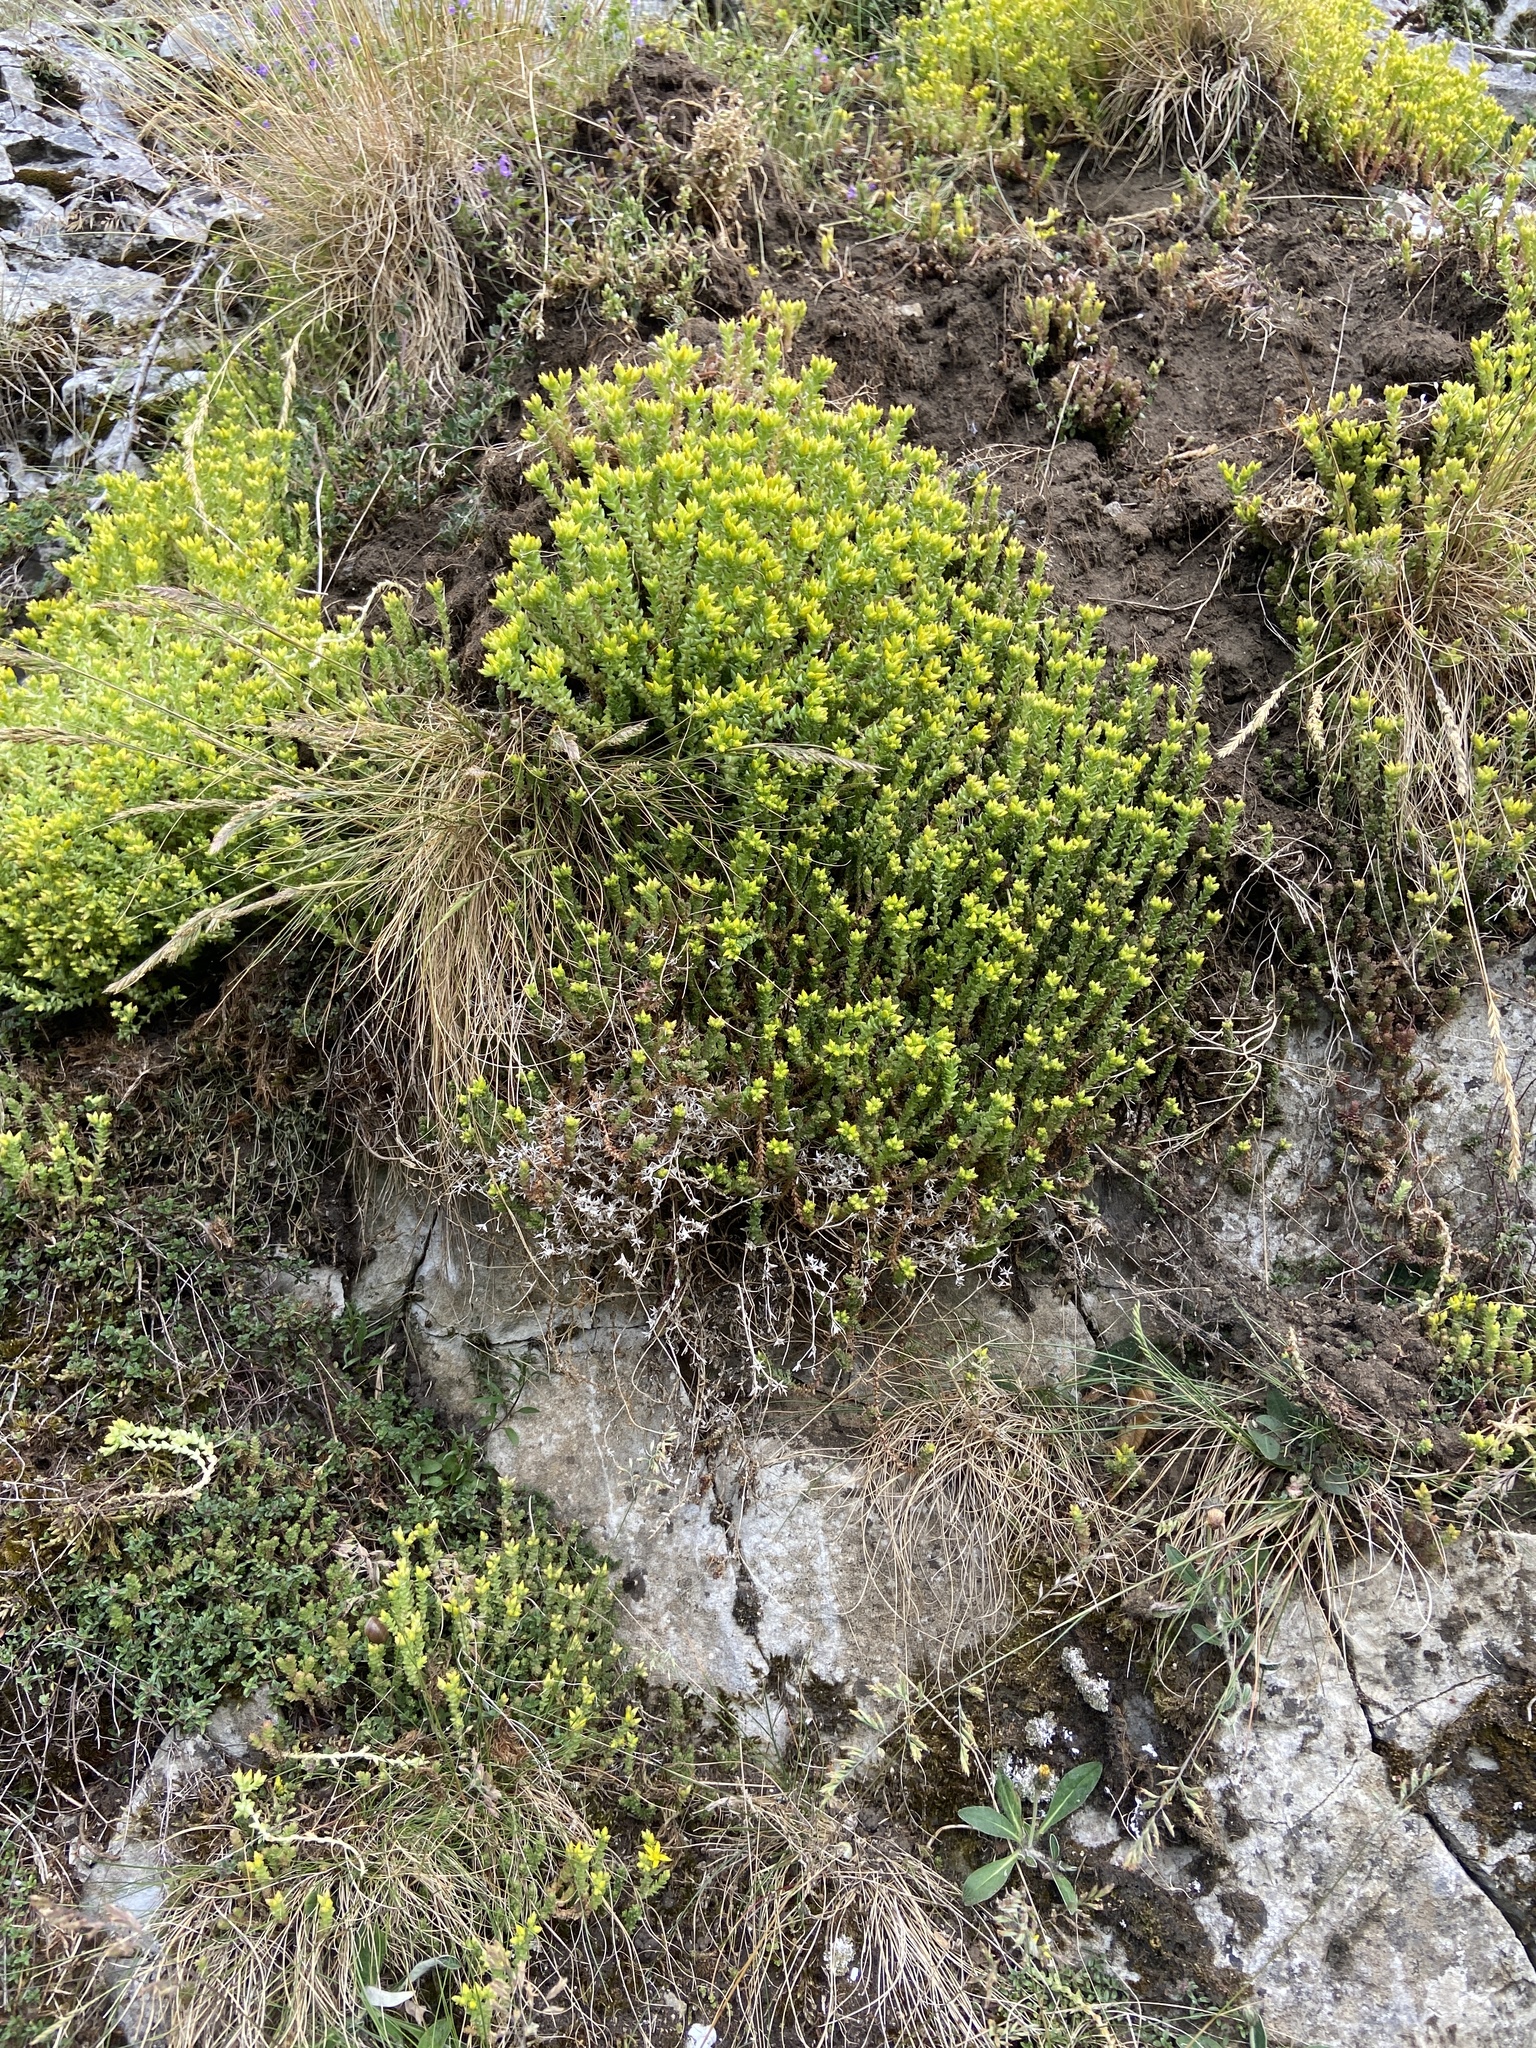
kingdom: Plantae
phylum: Tracheophyta
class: Magnoliopsida
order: Saxifragales
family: Crassulaceae
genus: Sedum
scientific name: Sedum acre
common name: Biting stonecrop
